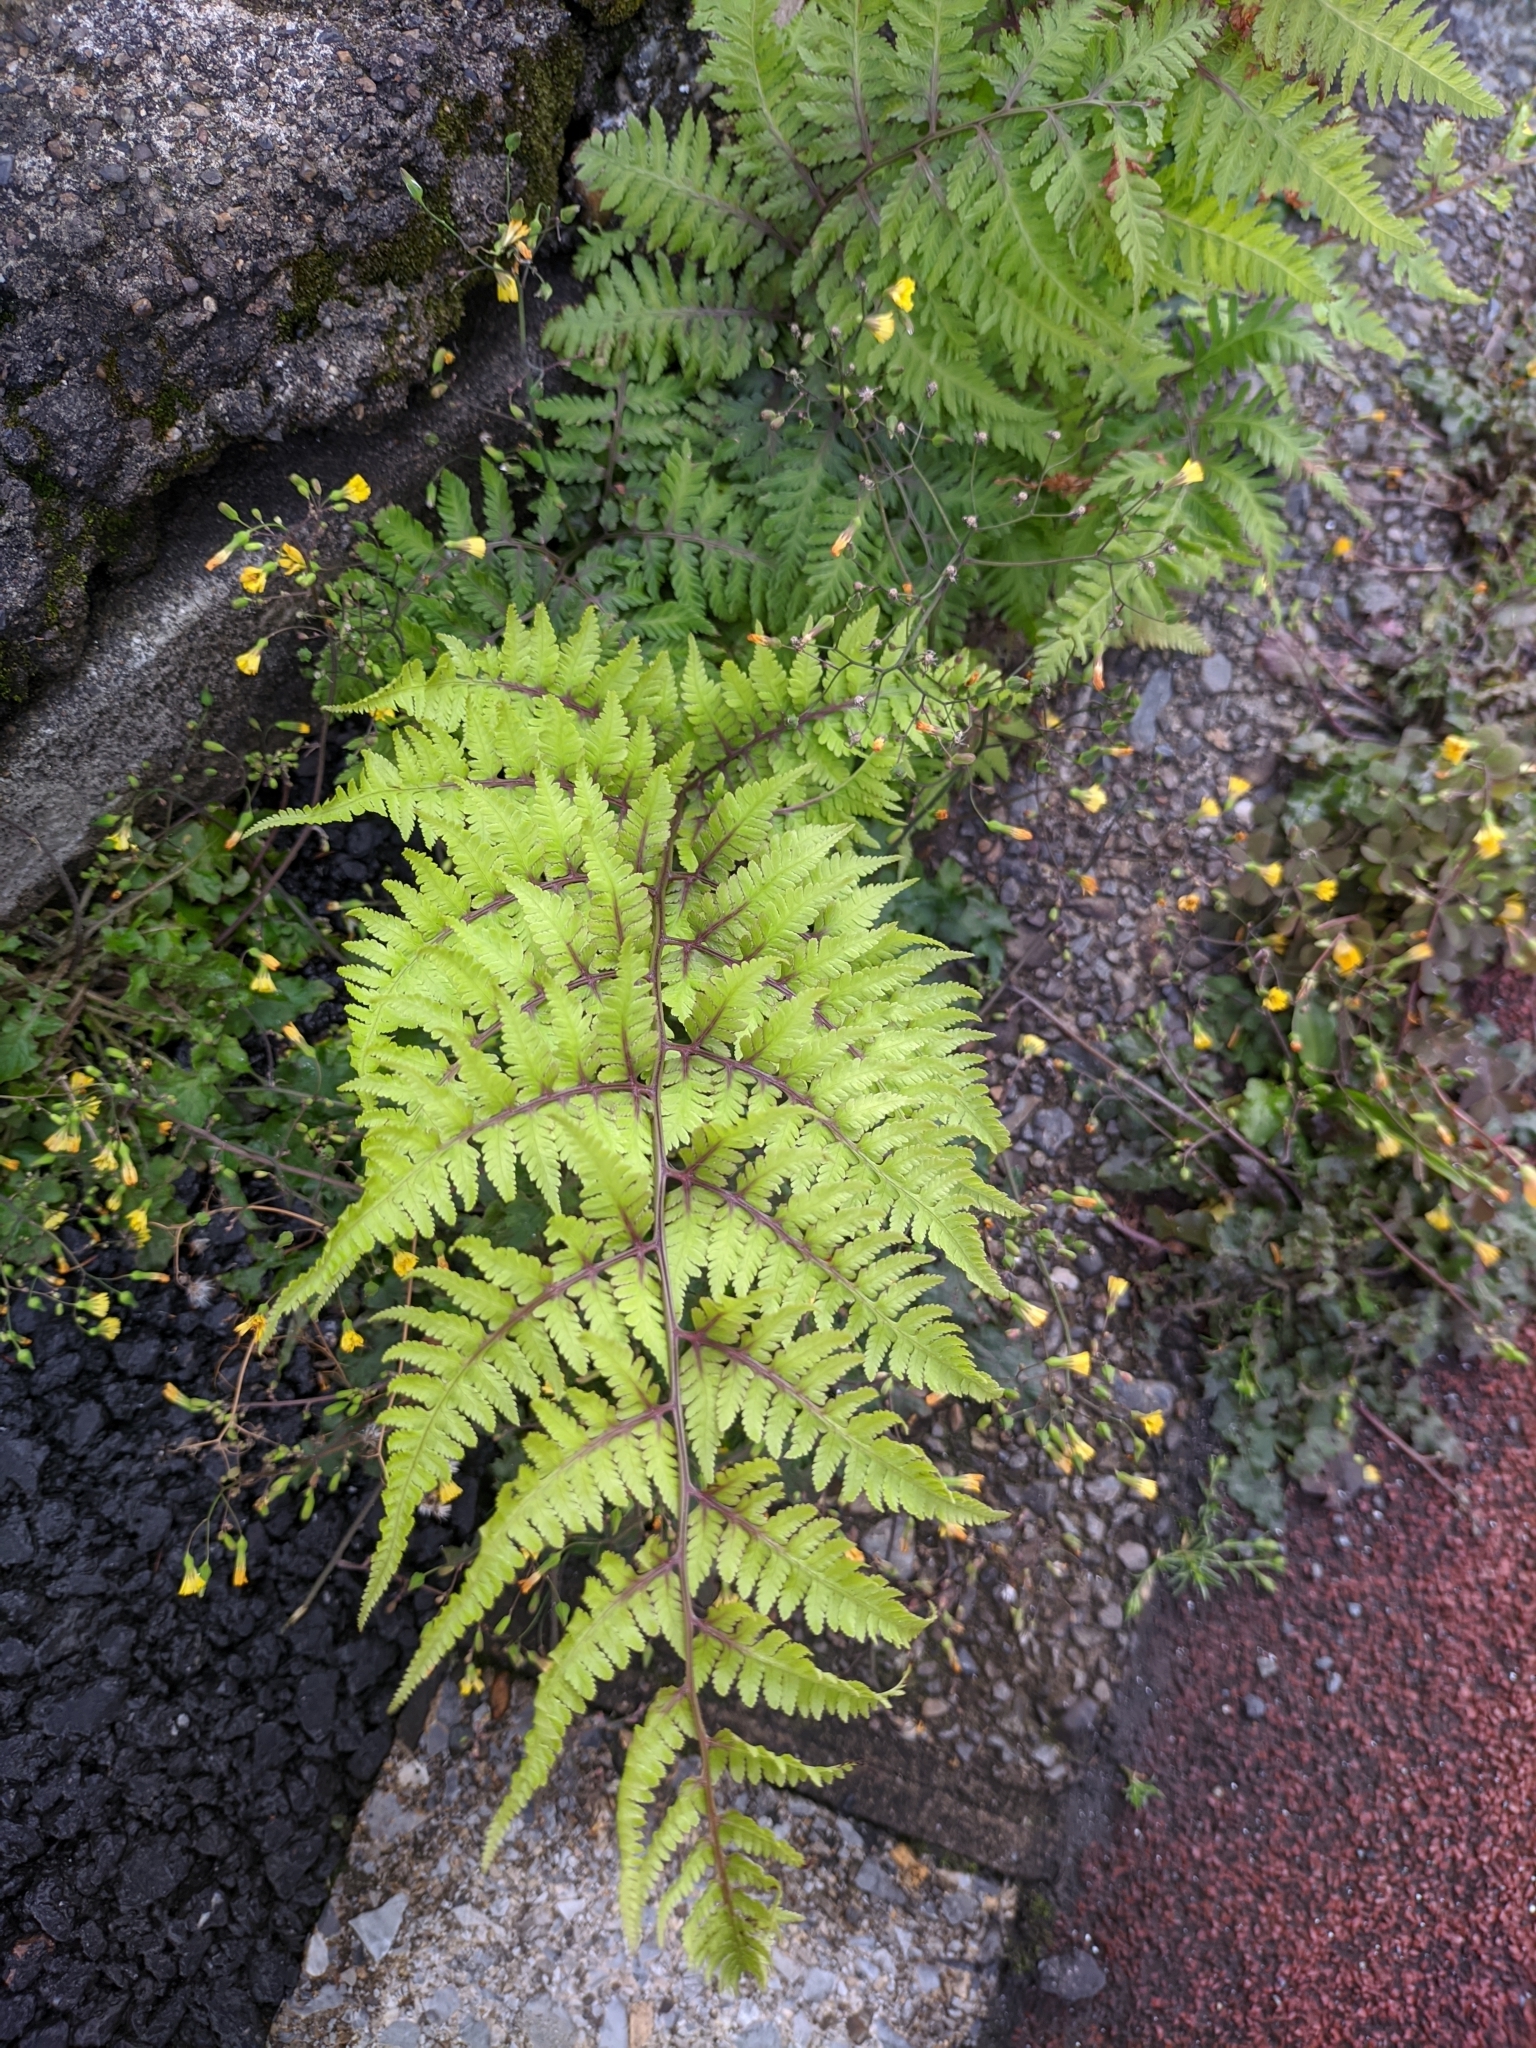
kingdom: Plantae
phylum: Tracheophyta
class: Polypodiopsida
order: Polypodiales
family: Athyriaceae
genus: Anisocampium
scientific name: Anisocampium niponicum
